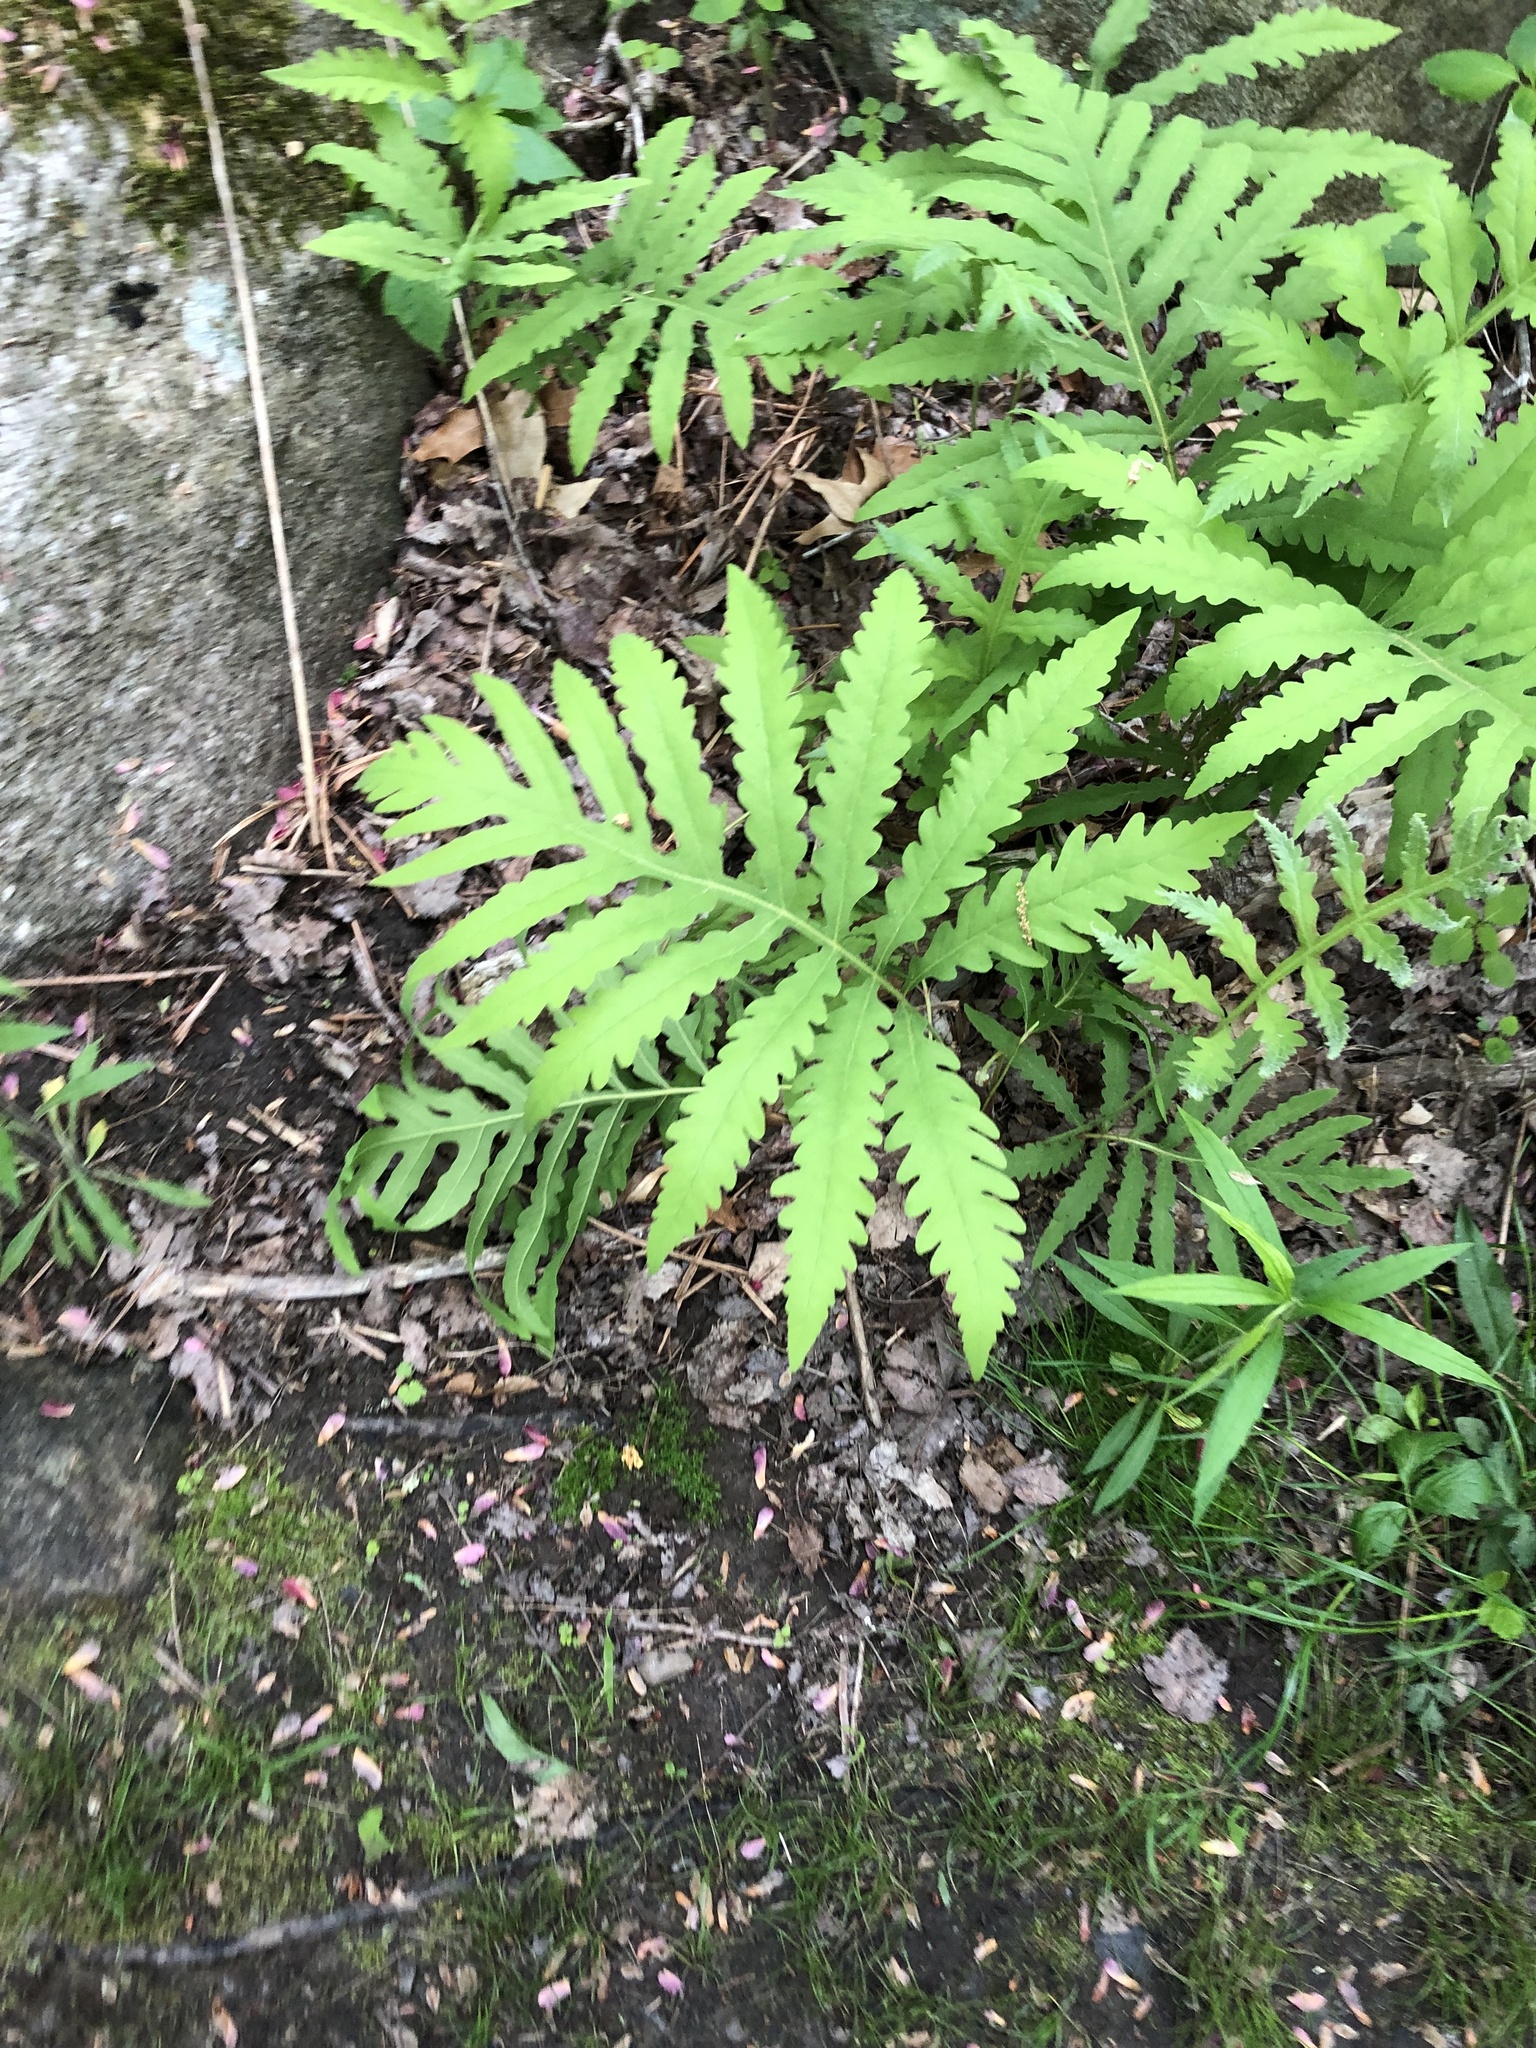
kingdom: Plantae
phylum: Tracheophyta
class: Polypodiopsida
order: Polypodiales
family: Onocleaceae
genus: Onoclea
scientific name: Onoclea sensibilis
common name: Sensitive fern
